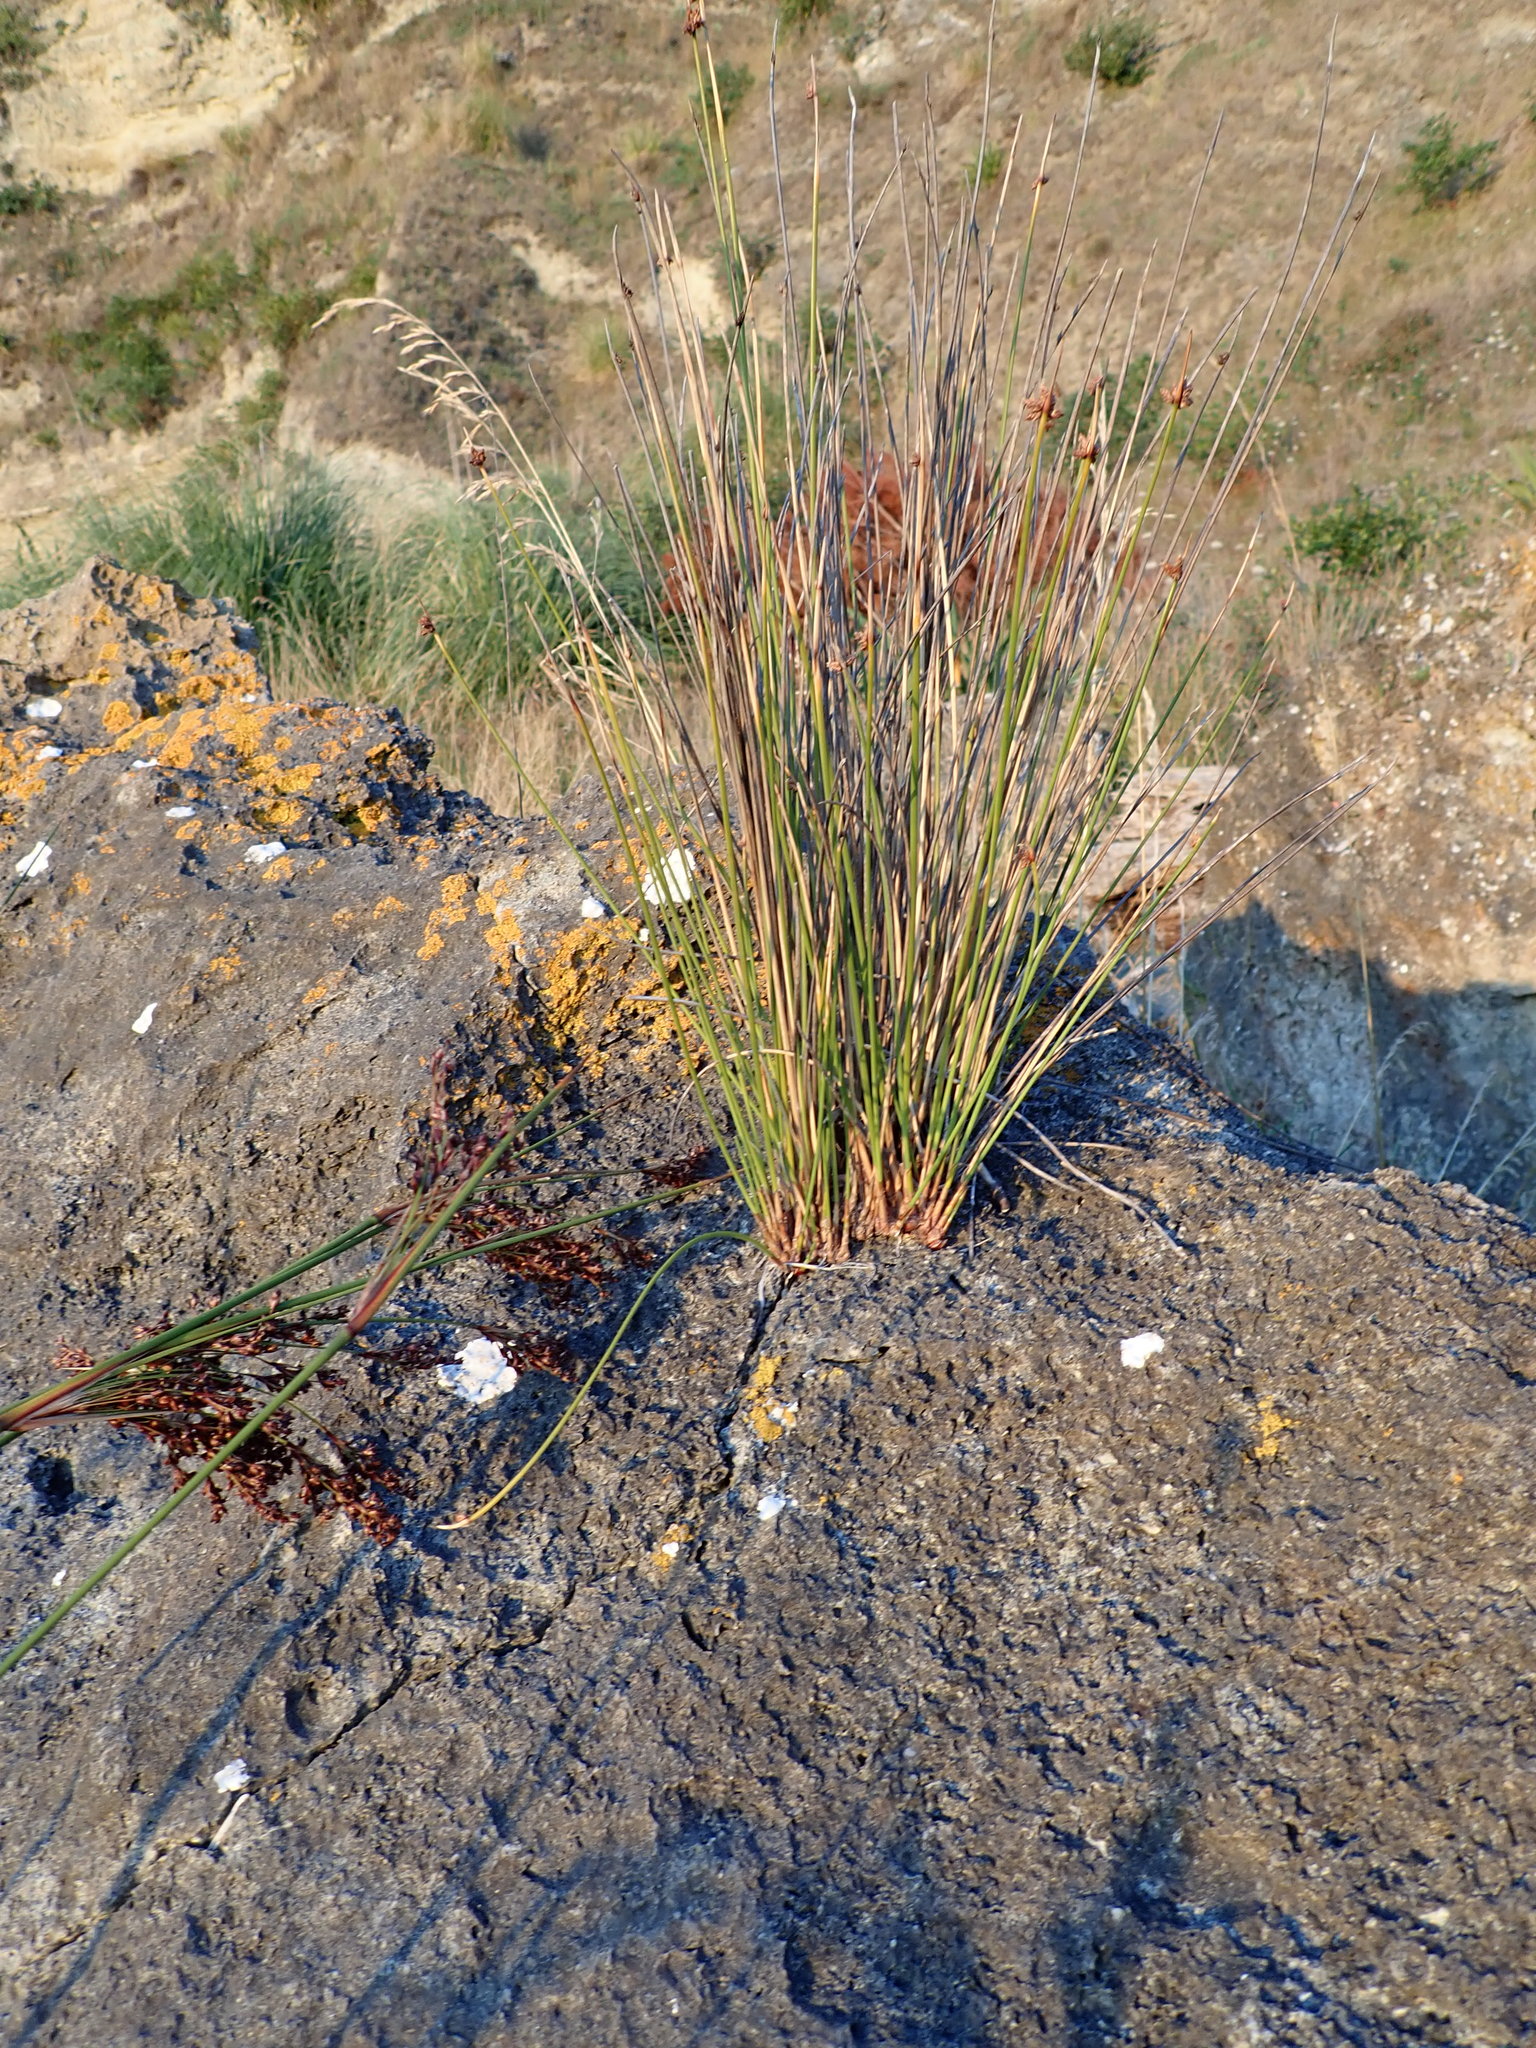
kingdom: Plantae
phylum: Tracheophyta
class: Liliopsida
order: Poales
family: Cyperaceae
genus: Ficinia
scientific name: Ficinia nodosa
